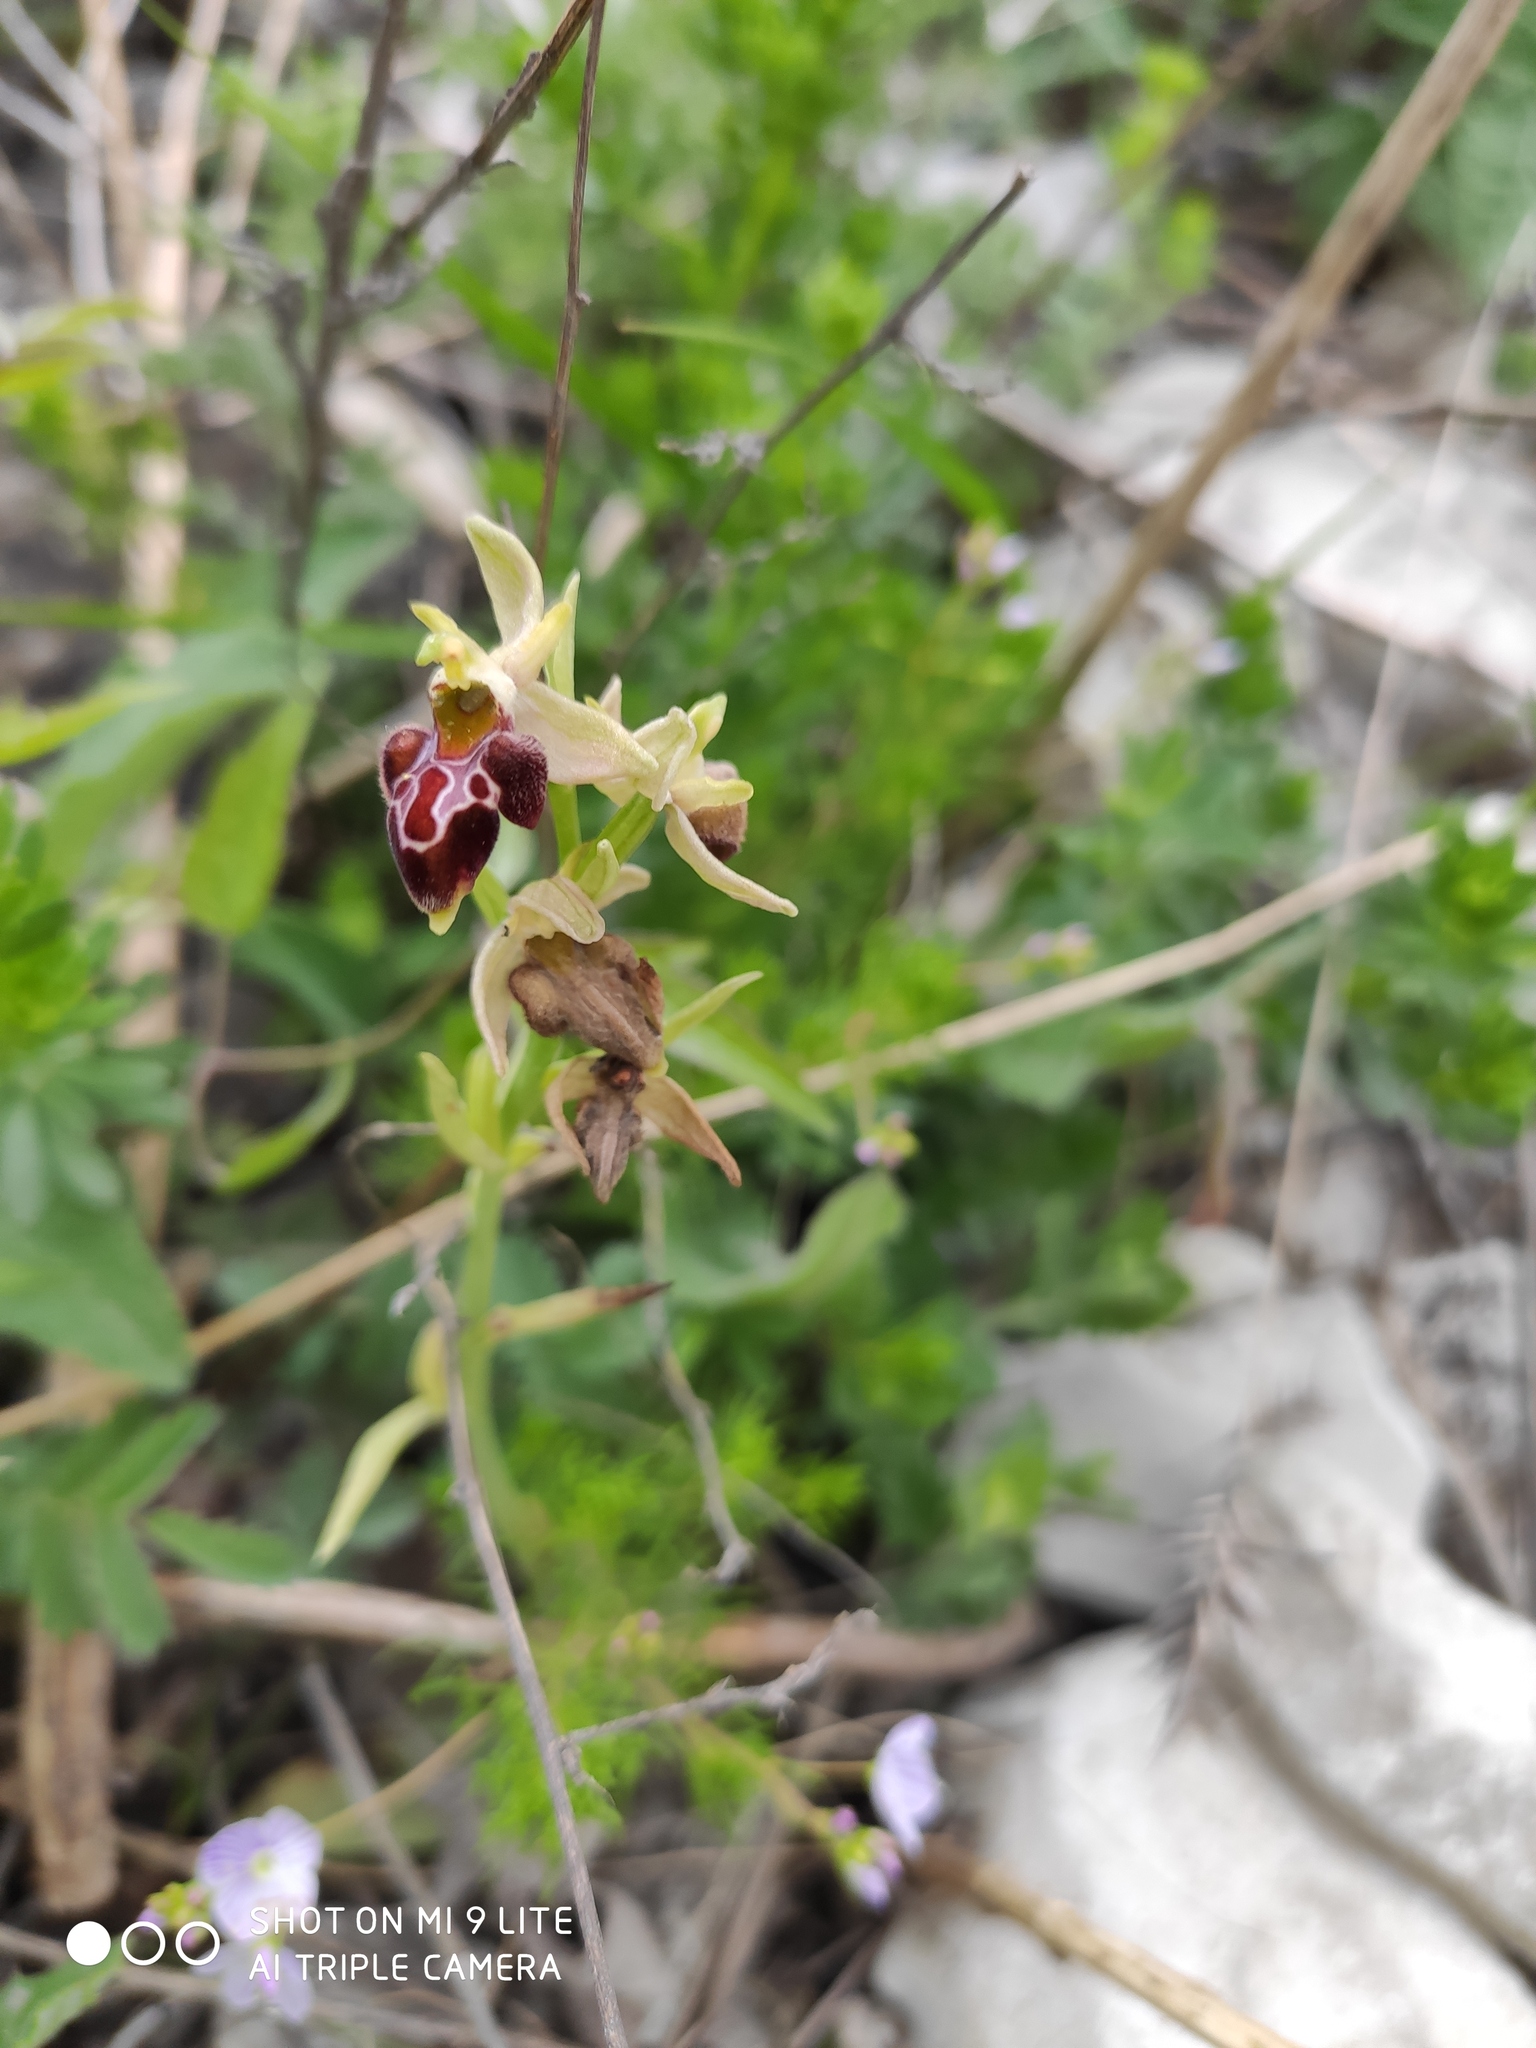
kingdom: Plantae
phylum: Tracheophyta
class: Liliopsida
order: Asparagales
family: Orchidaceae
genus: Ophrys
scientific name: Ophrys sphegodes
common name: Early spider-orchid
